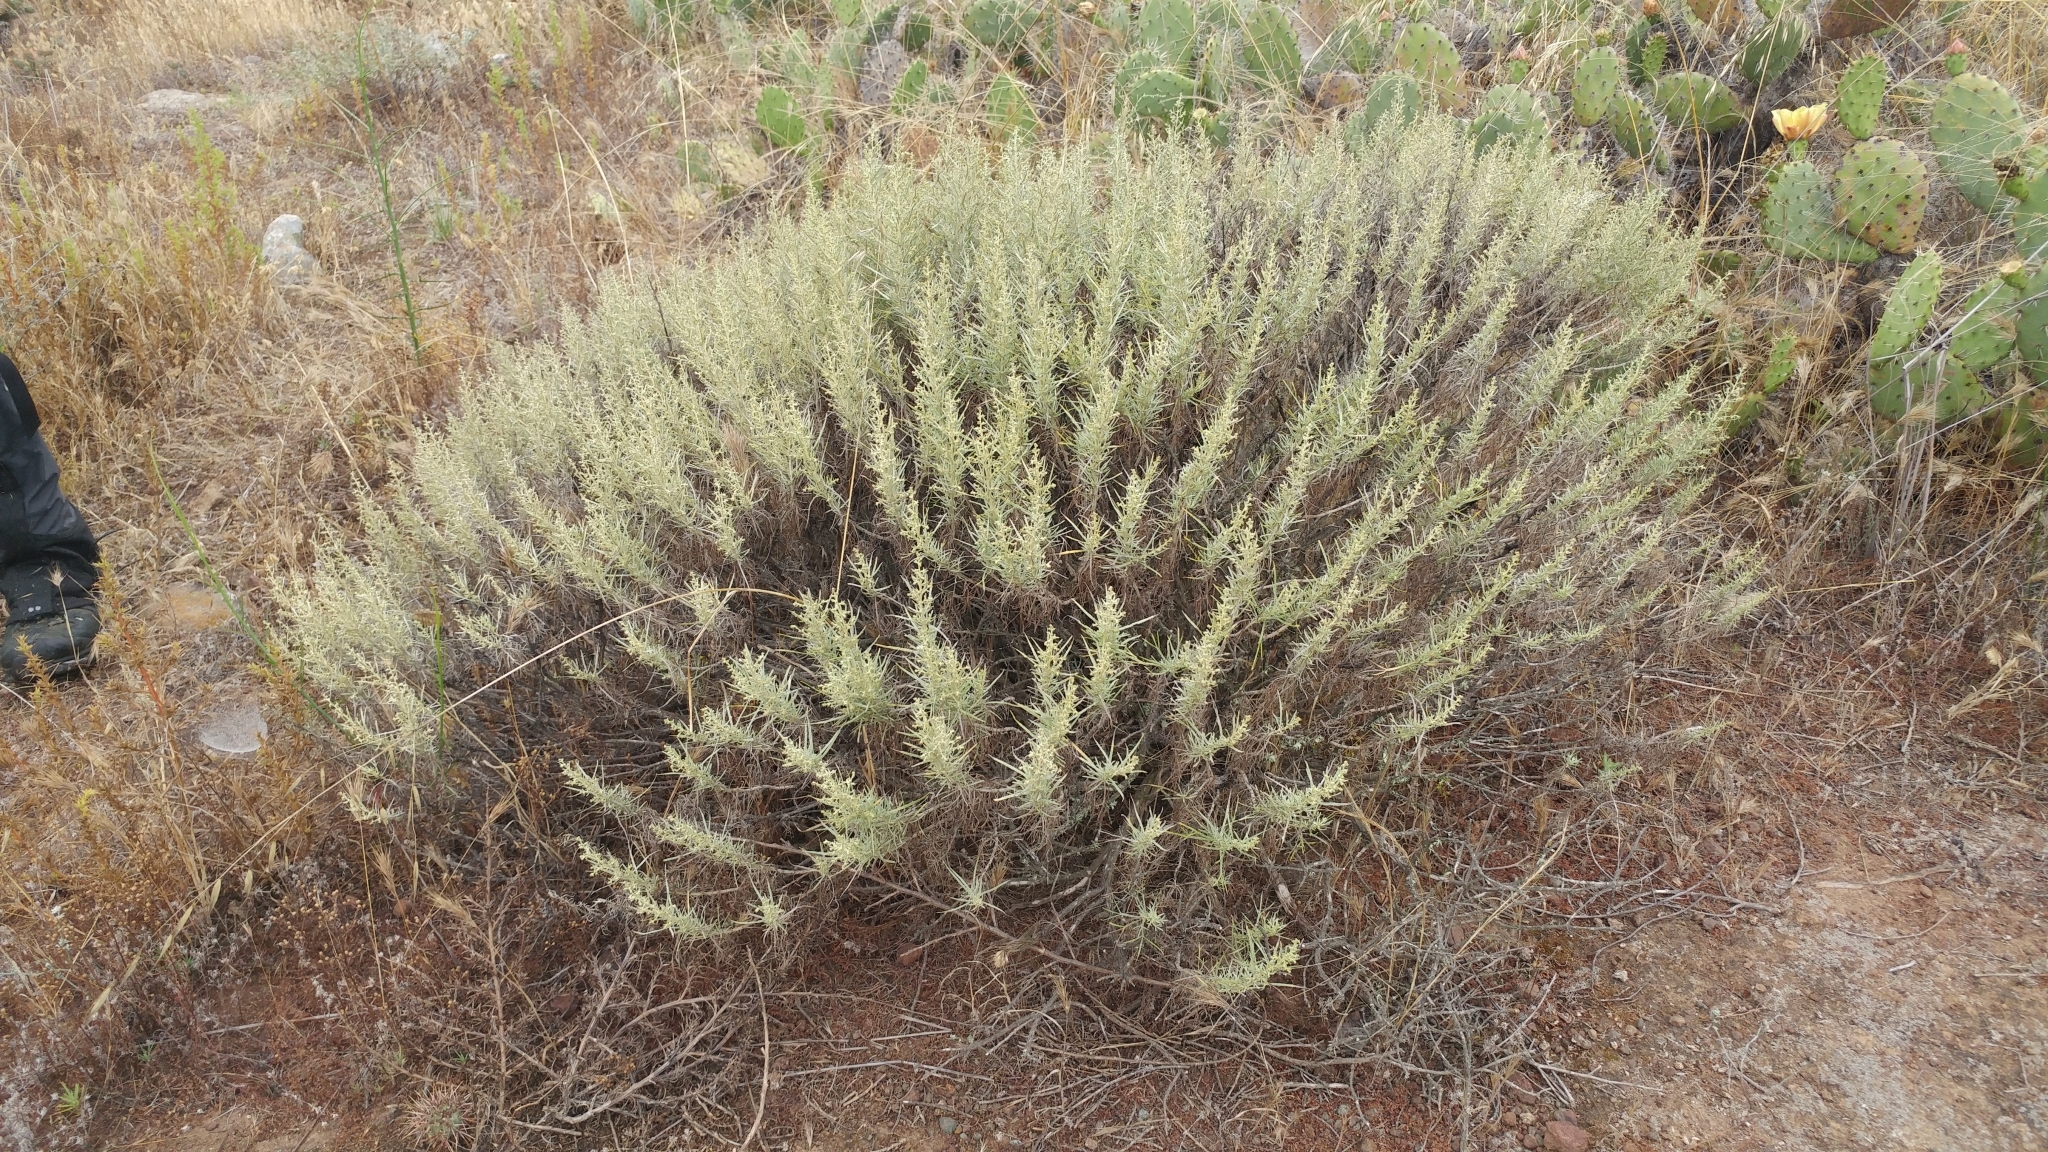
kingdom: Plantae
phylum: Tracheophyta
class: Magnoliopsida
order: Asterales
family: Asteraceae
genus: Artemisia
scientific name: Artemisia californica
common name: California sagebrush
